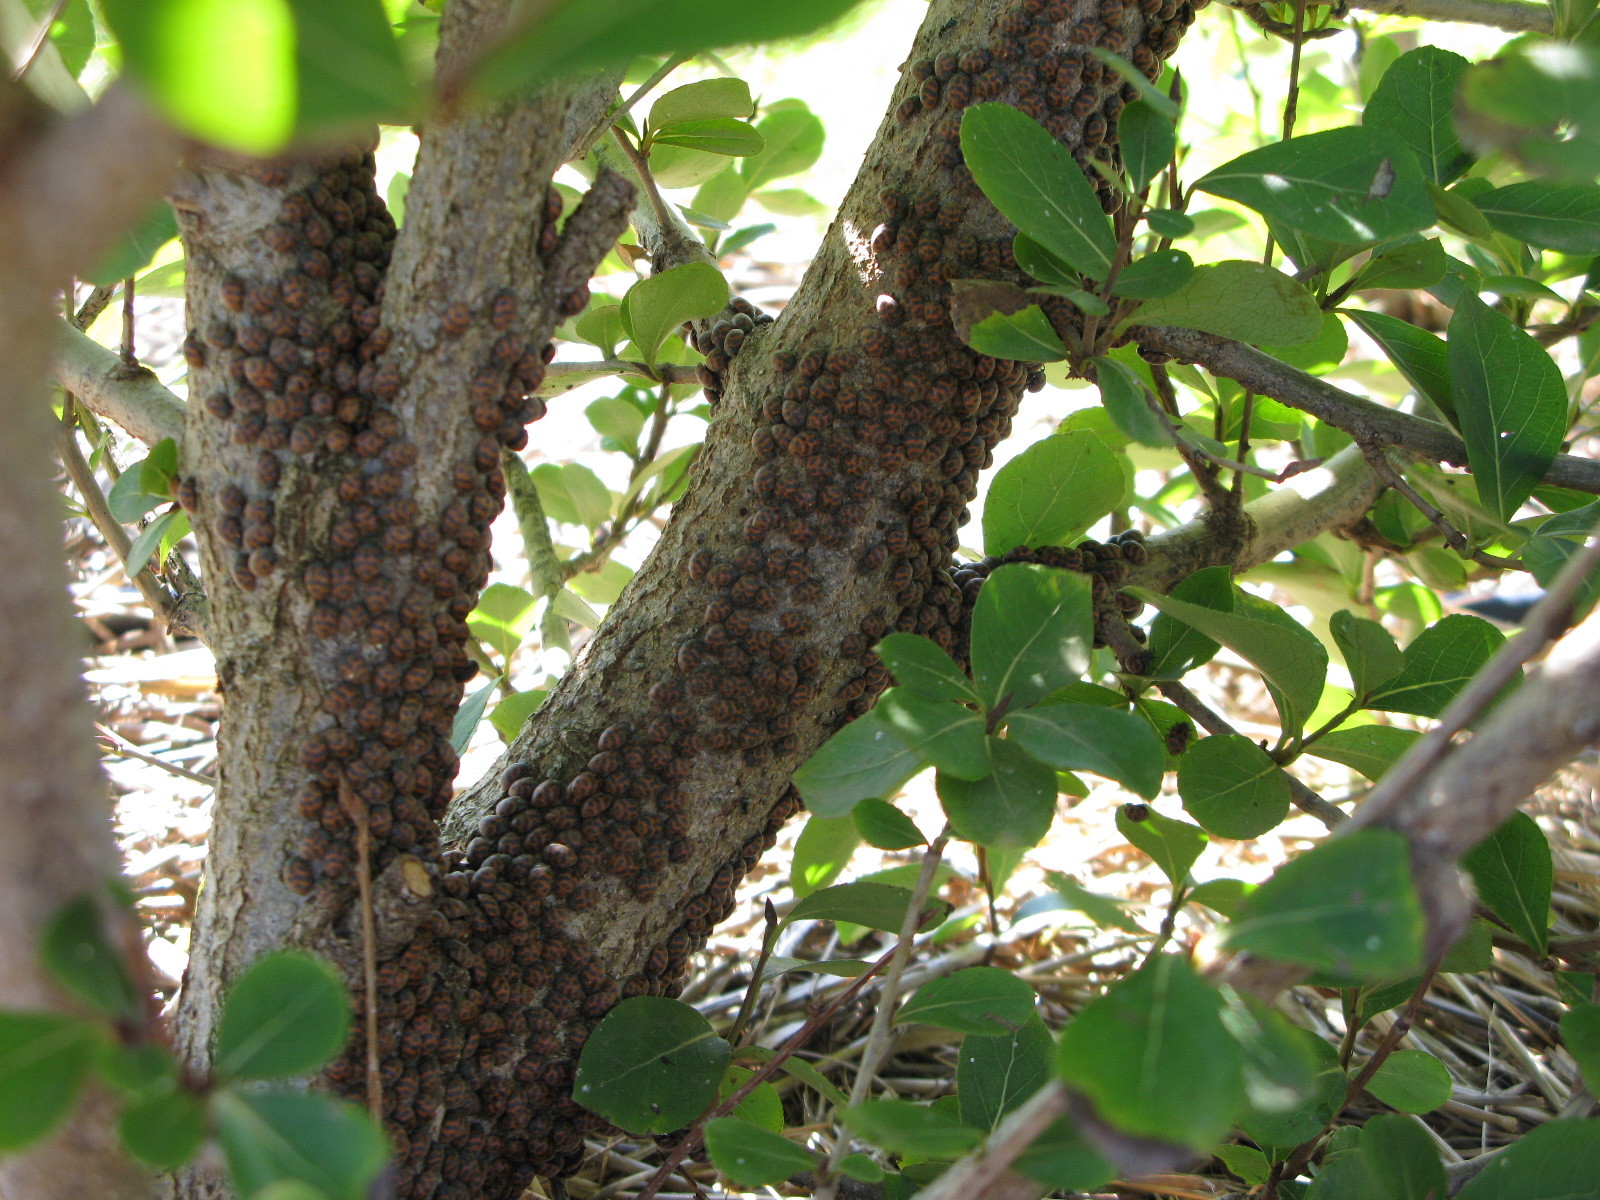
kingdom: Animalia
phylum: Arthropoda
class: Insecta
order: Coleoptera
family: Coccinellidae
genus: Chnootriba
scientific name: Chnootriba
